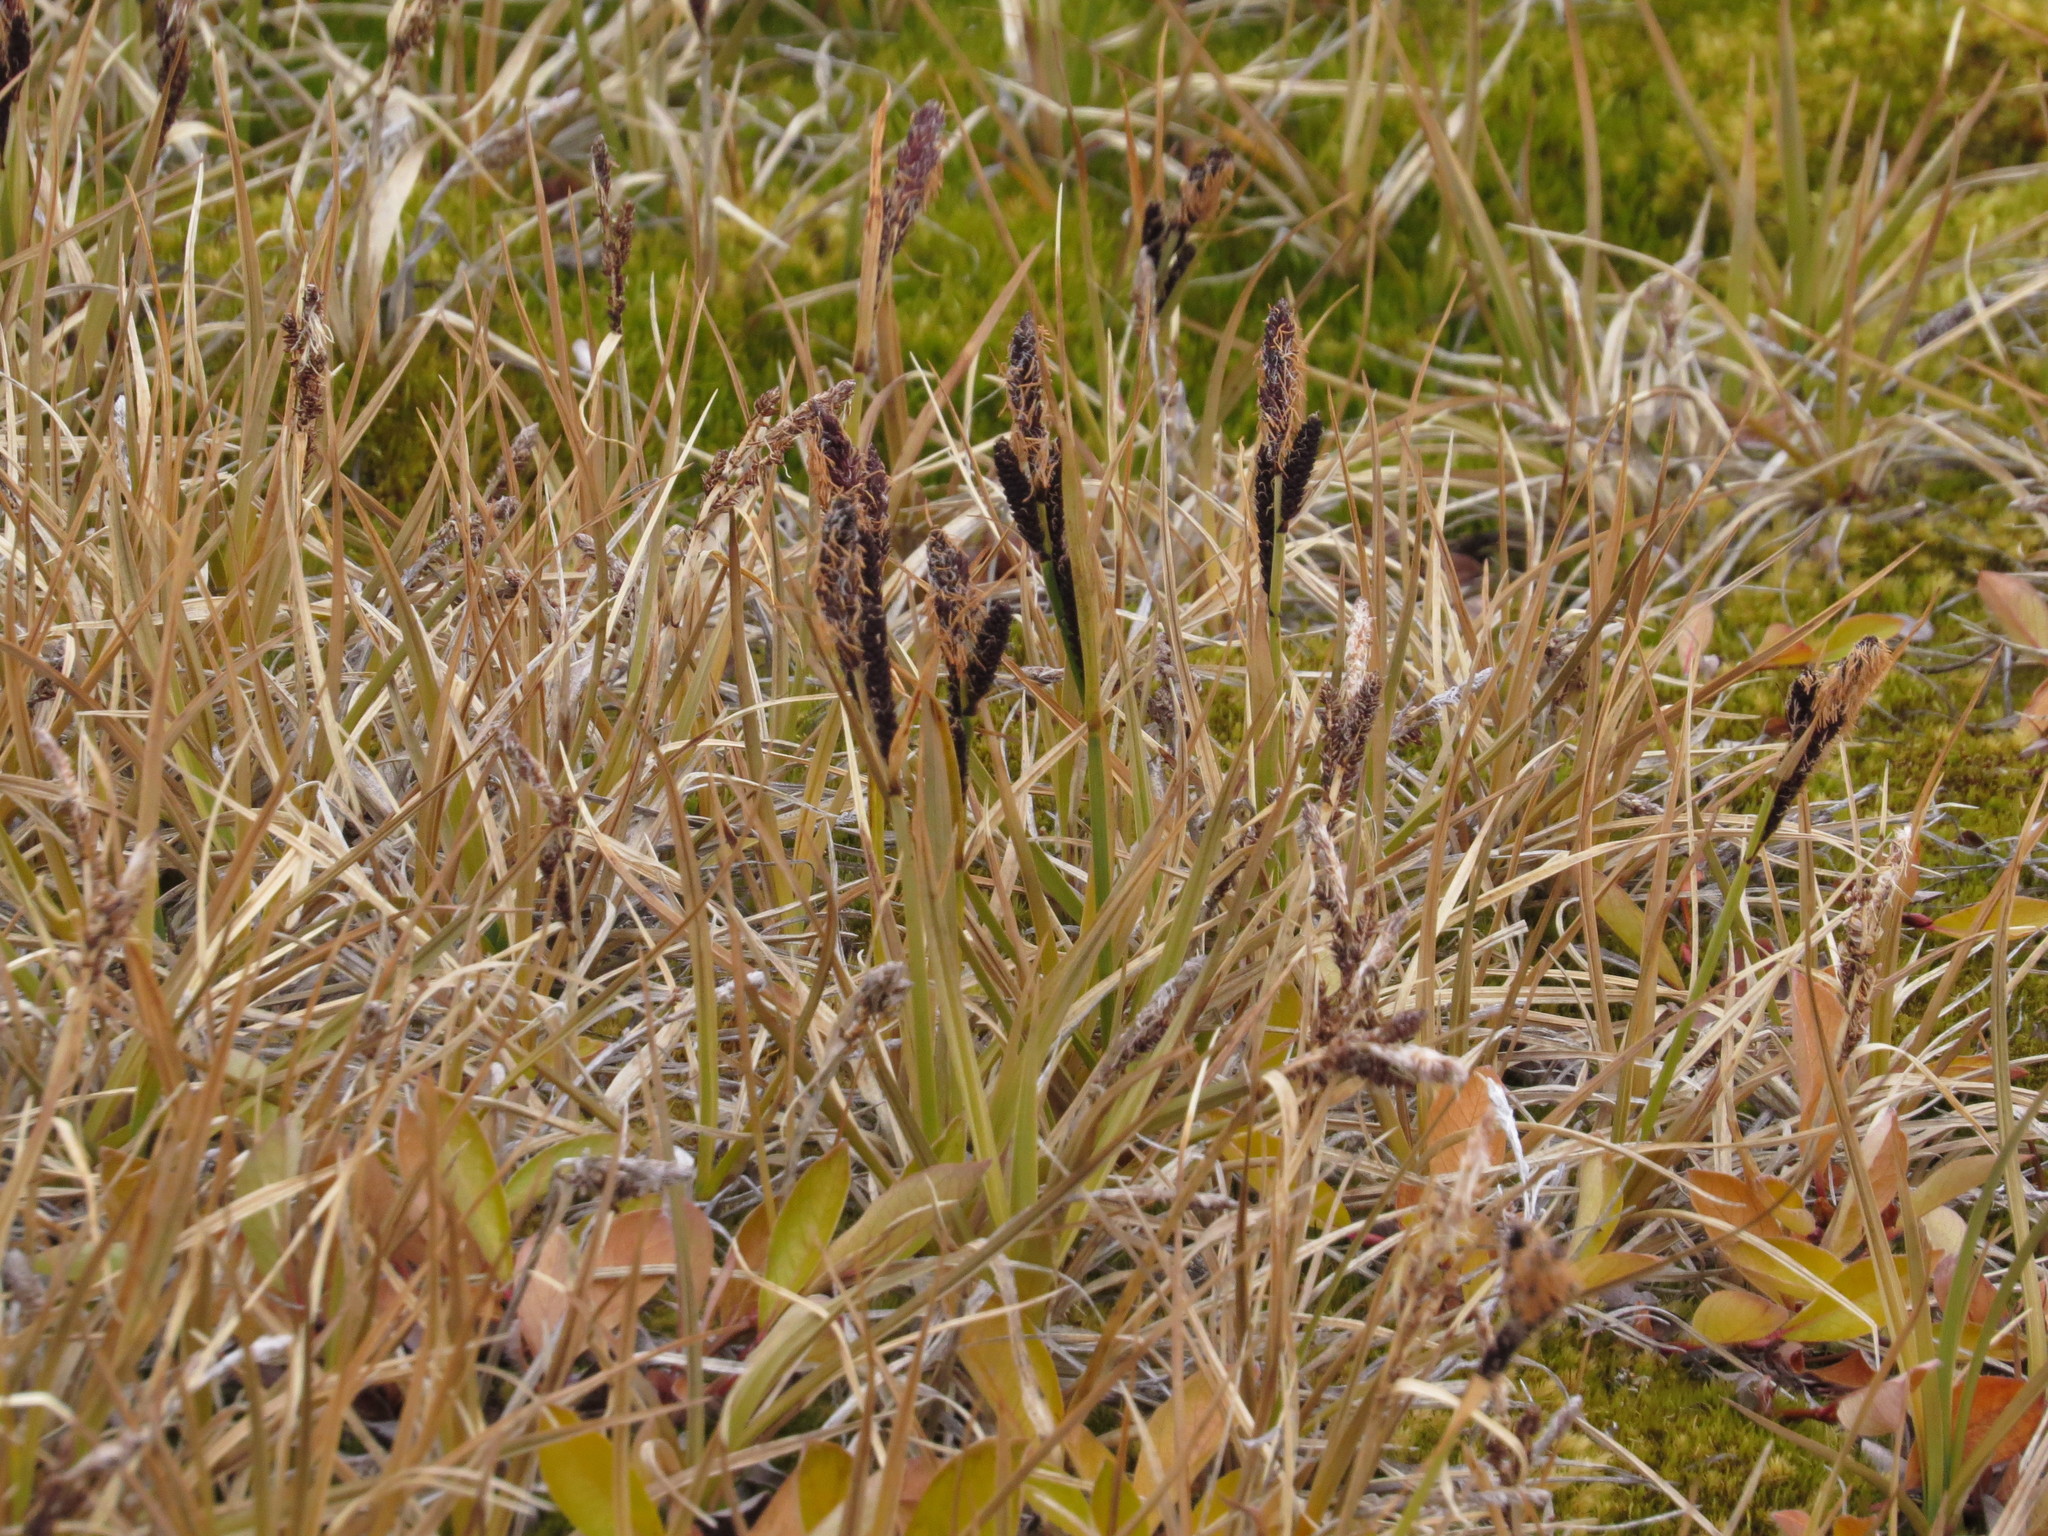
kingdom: Plantae
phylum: Tracheophyta
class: Liliopsida
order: Poales
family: Cyperaceae
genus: Carex
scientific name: Carex bigelowii
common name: Stiff sedge
